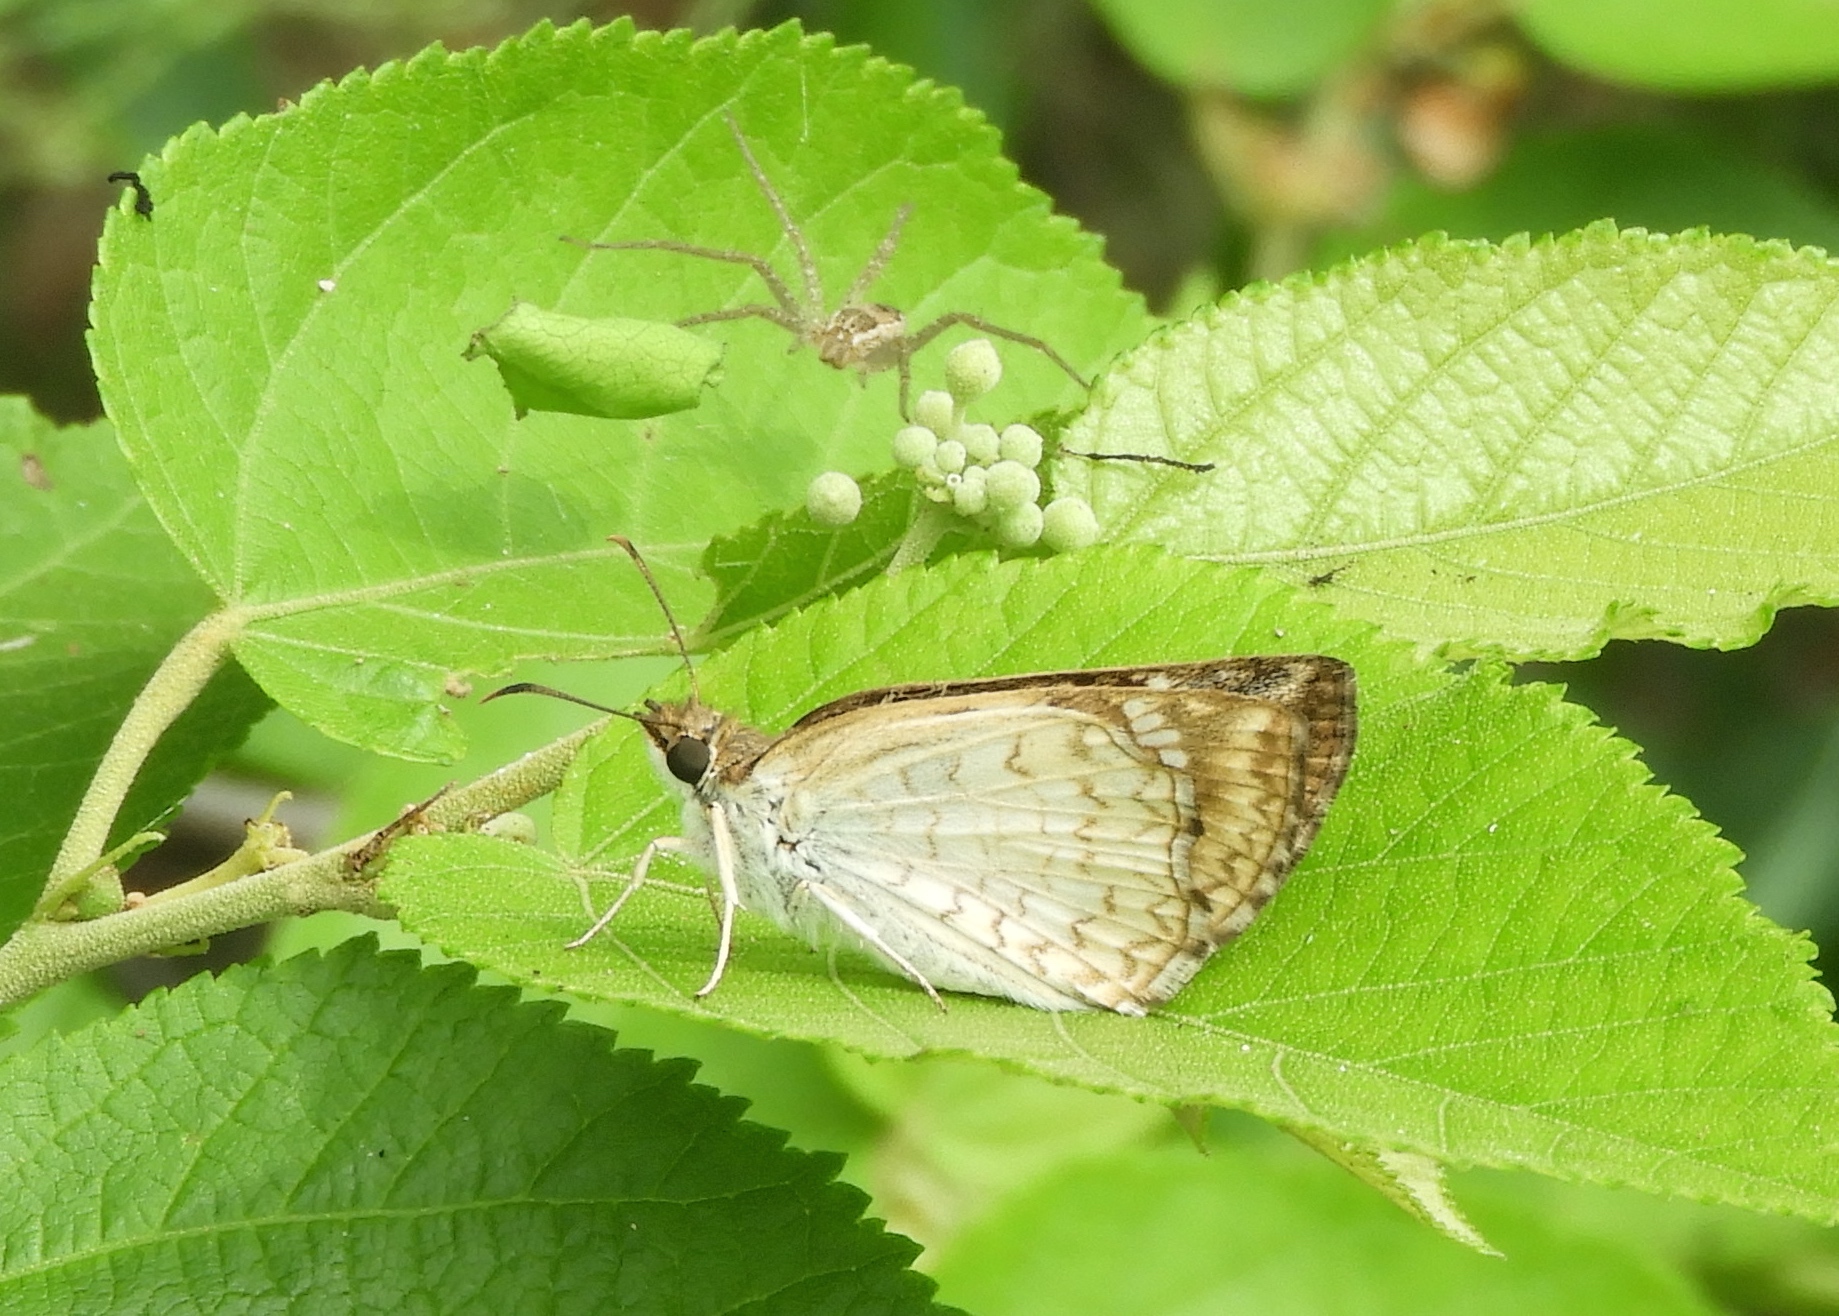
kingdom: Animalia
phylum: Arthropoda
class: Insecta
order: Lepidoptera
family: Hesperiidae
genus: Antigonus
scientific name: Antigonus emorsa
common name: White spurwing
